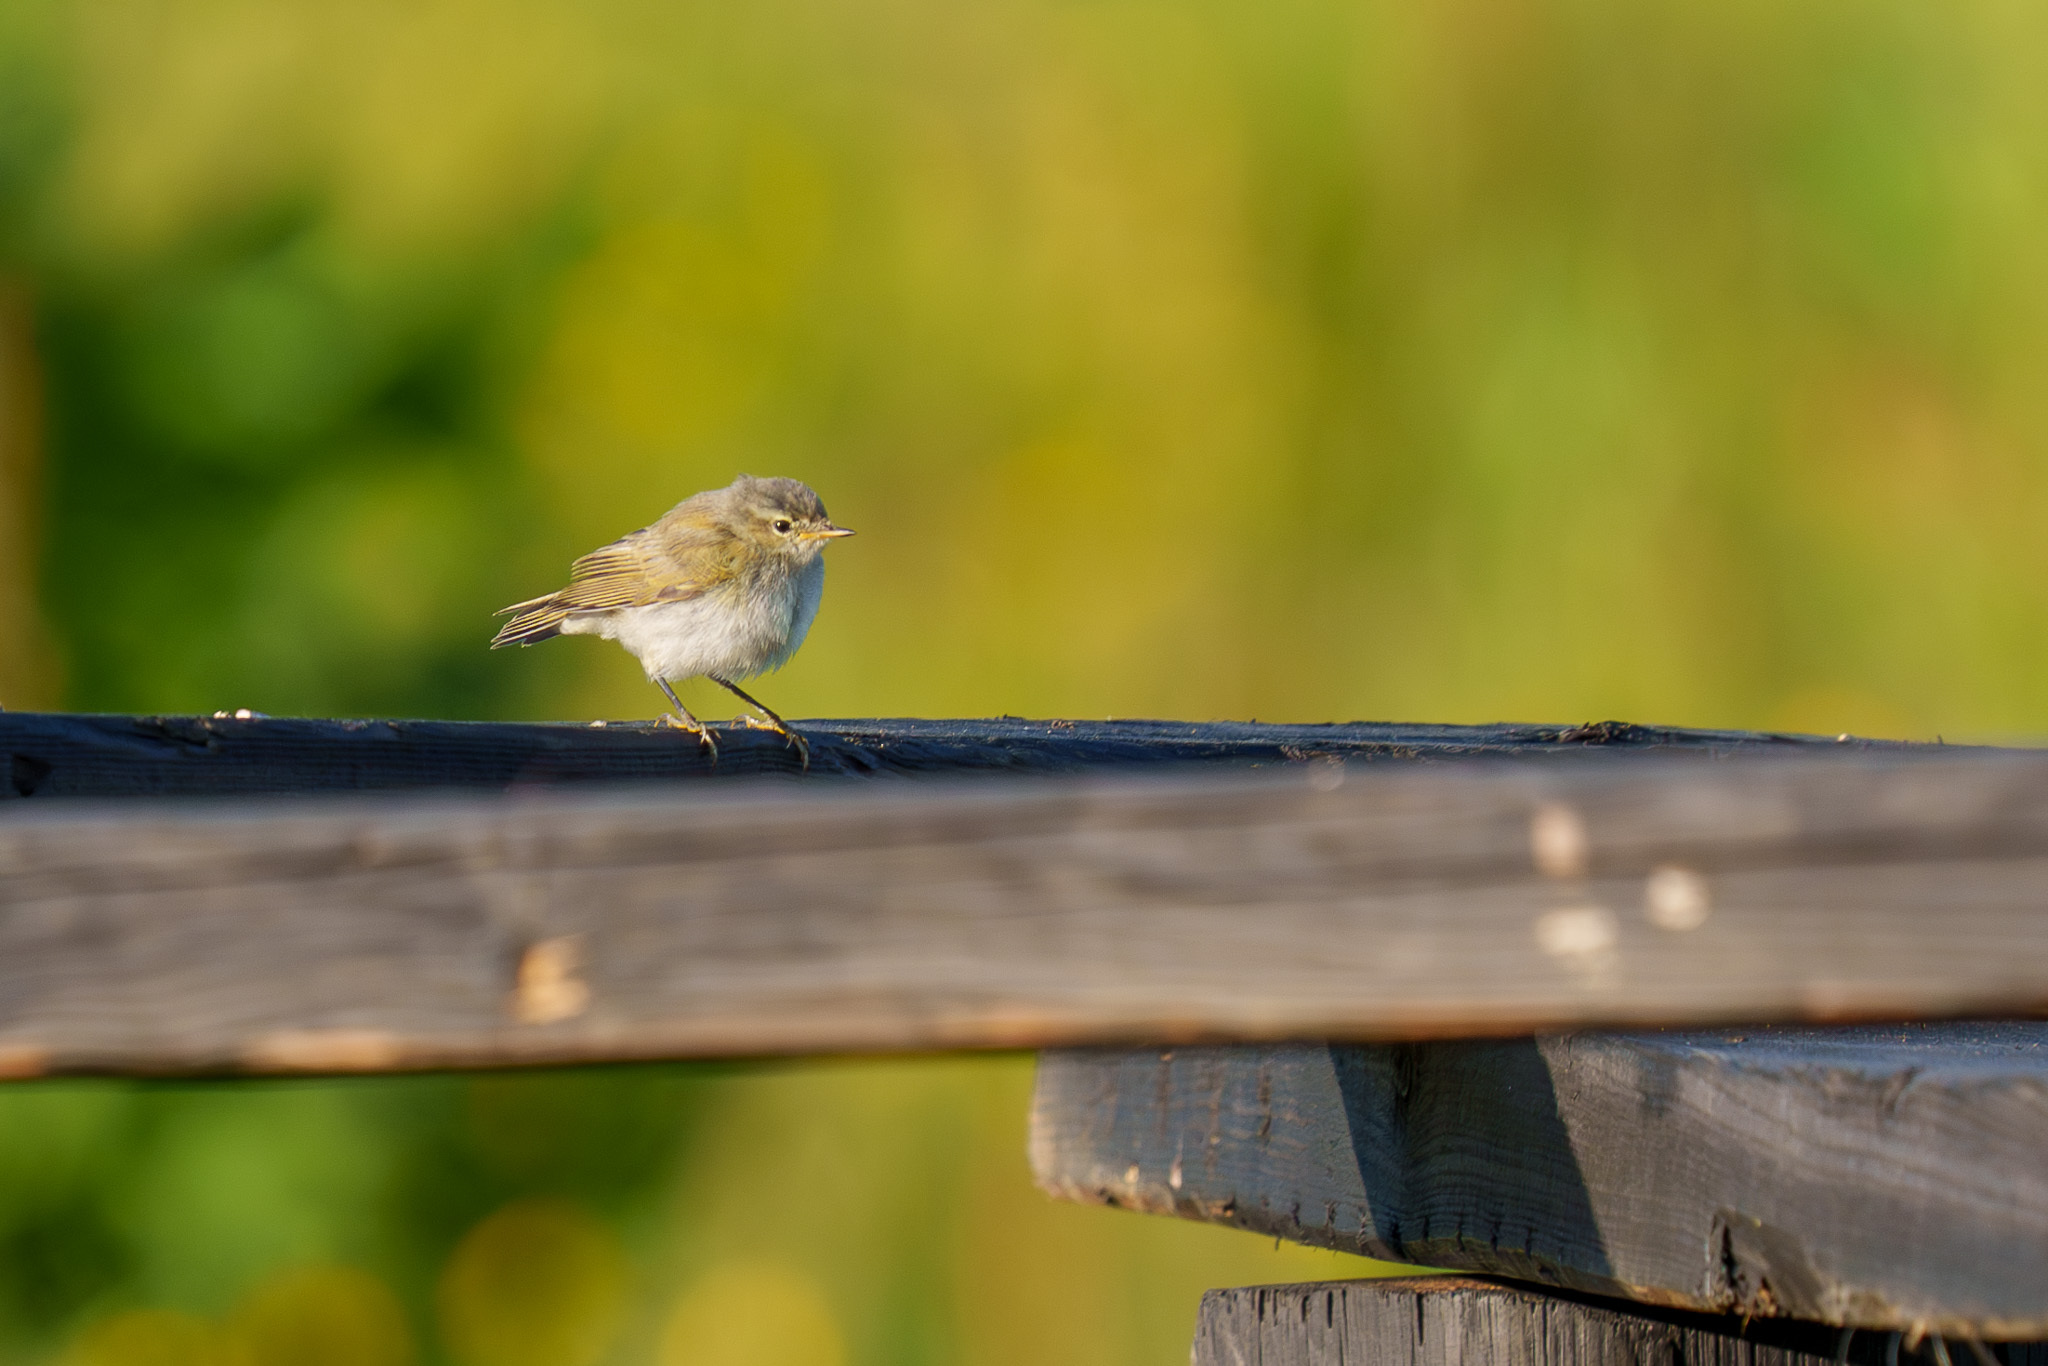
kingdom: Animalia
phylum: Chordata
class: Aves
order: Passeriformes
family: Phylloscopidae
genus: Phylloscopus
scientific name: Phylloscopus collybita
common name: Common chiffchaff
